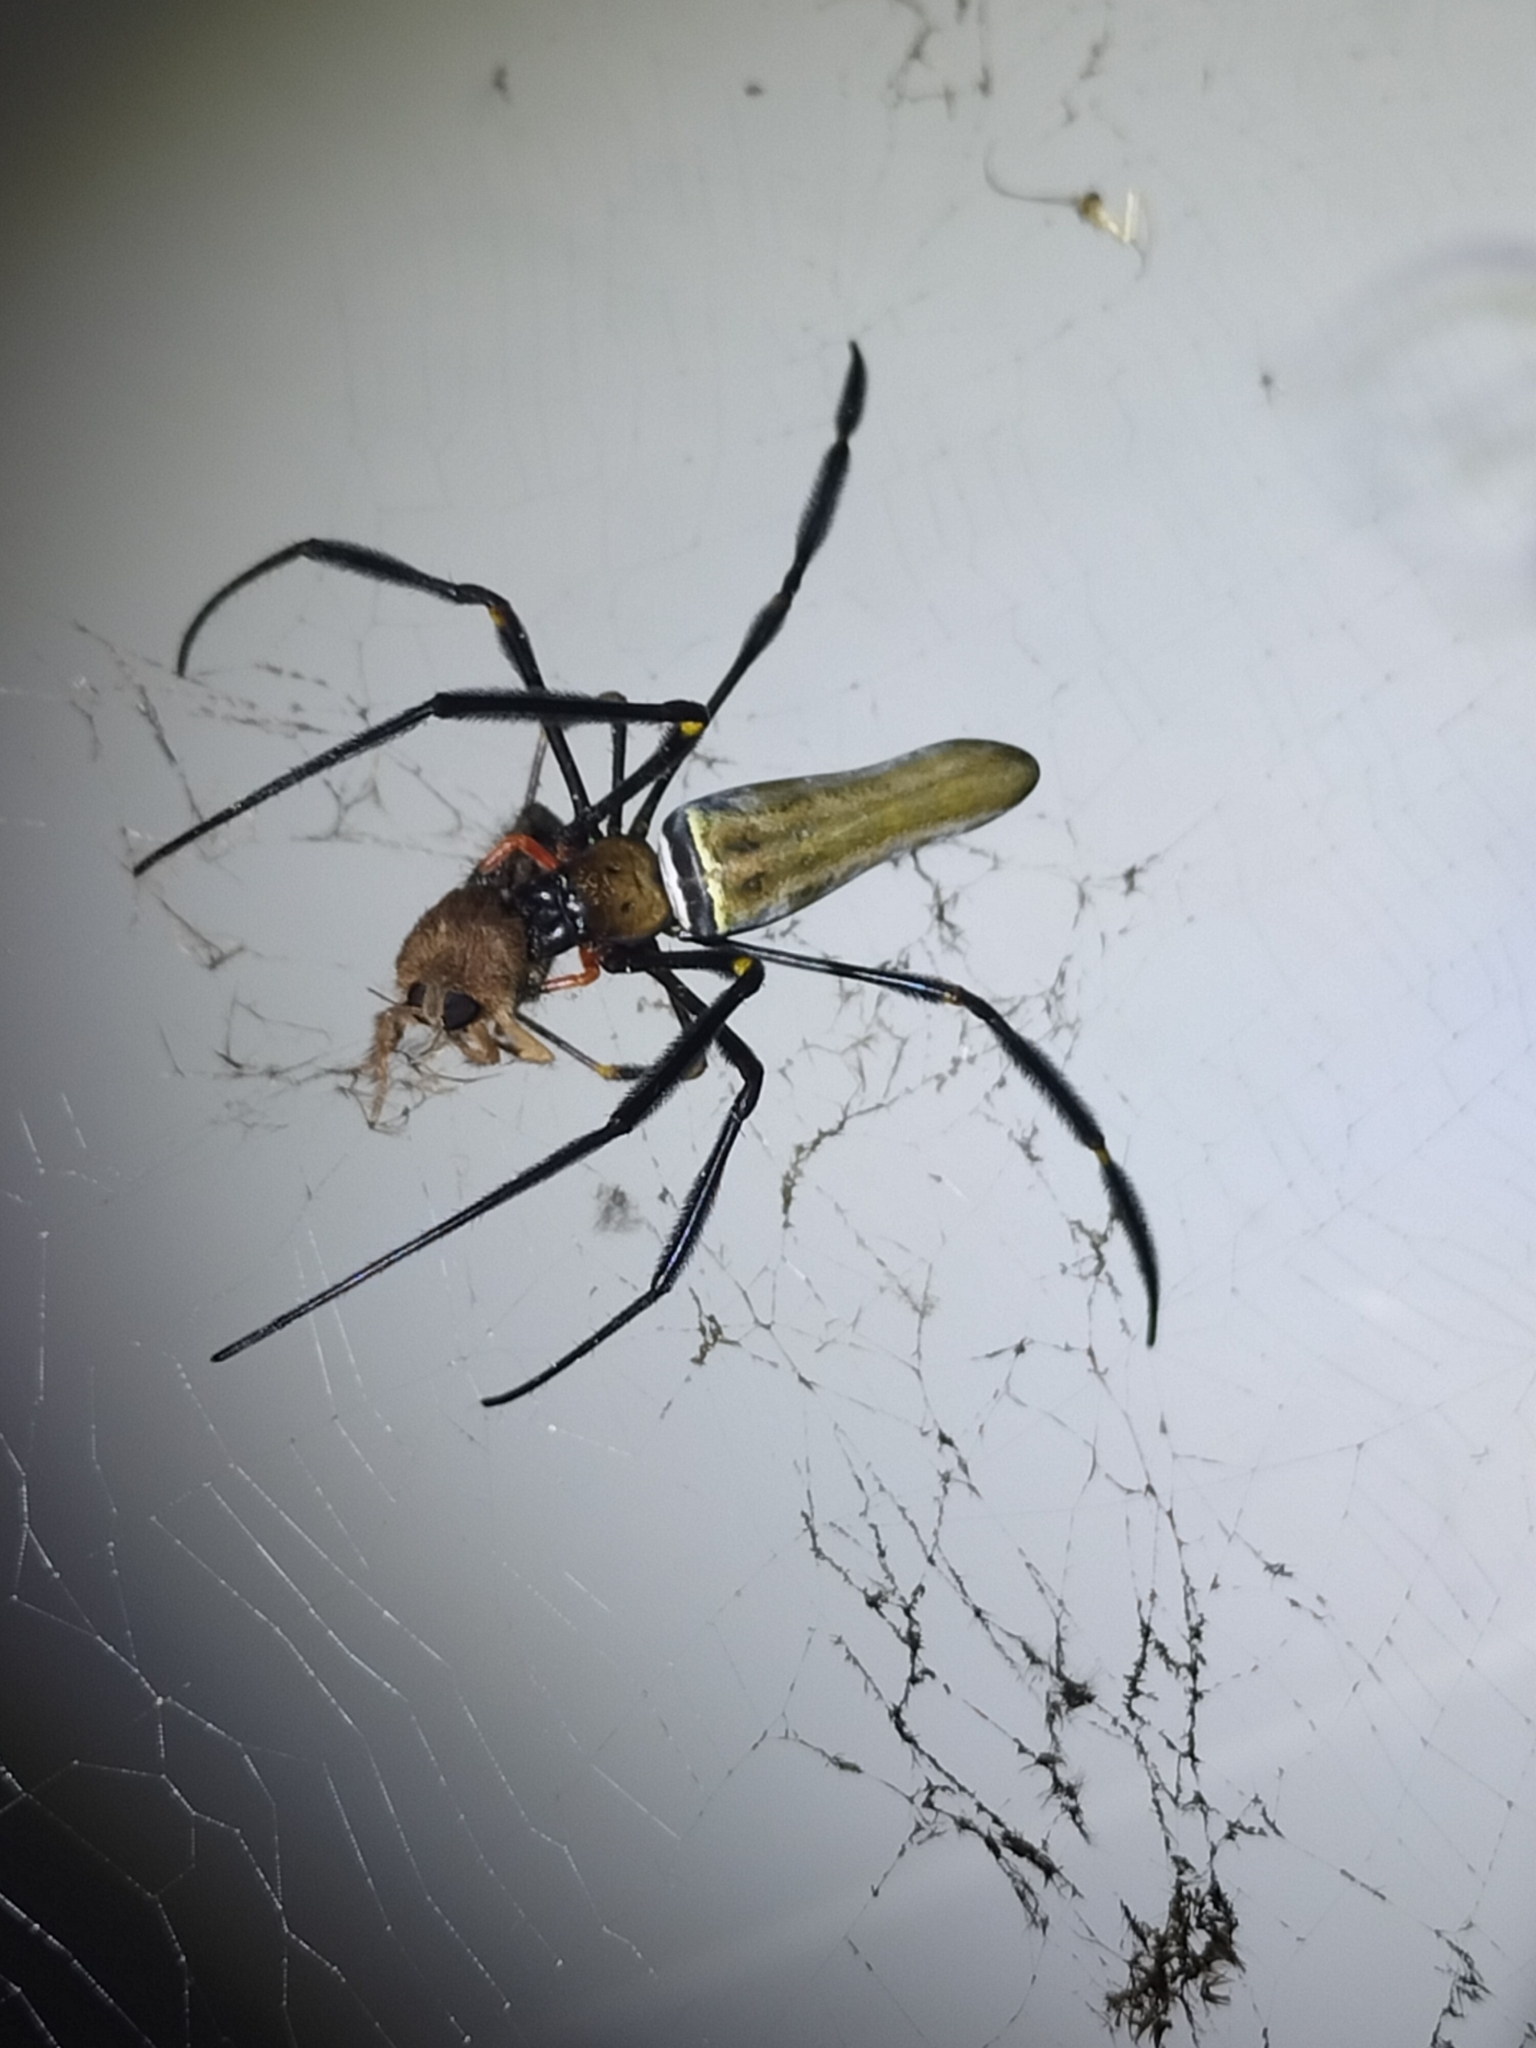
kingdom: Animalia
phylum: Arthropoda
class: Arachnida
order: Araneae
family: Araneidae
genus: Nephila
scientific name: Nephila pilipes
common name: Giant golden orb weaver
